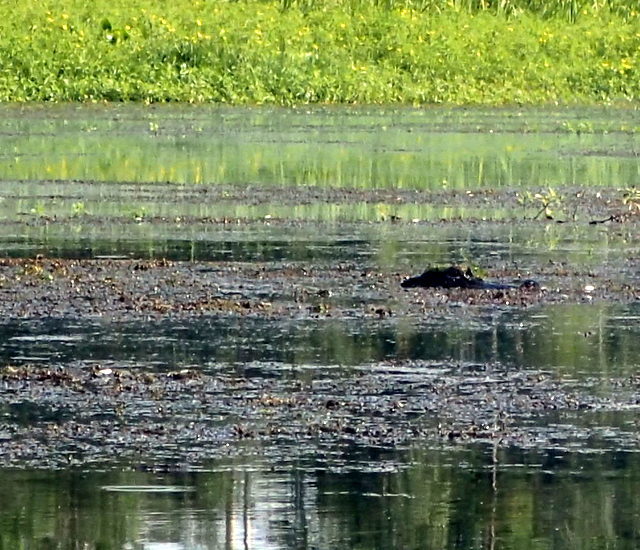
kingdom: Animalia
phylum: Chordata
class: Crocodylia
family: Alligatoridae
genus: Alligator
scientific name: Alligator mississippiensis
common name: American alligator
